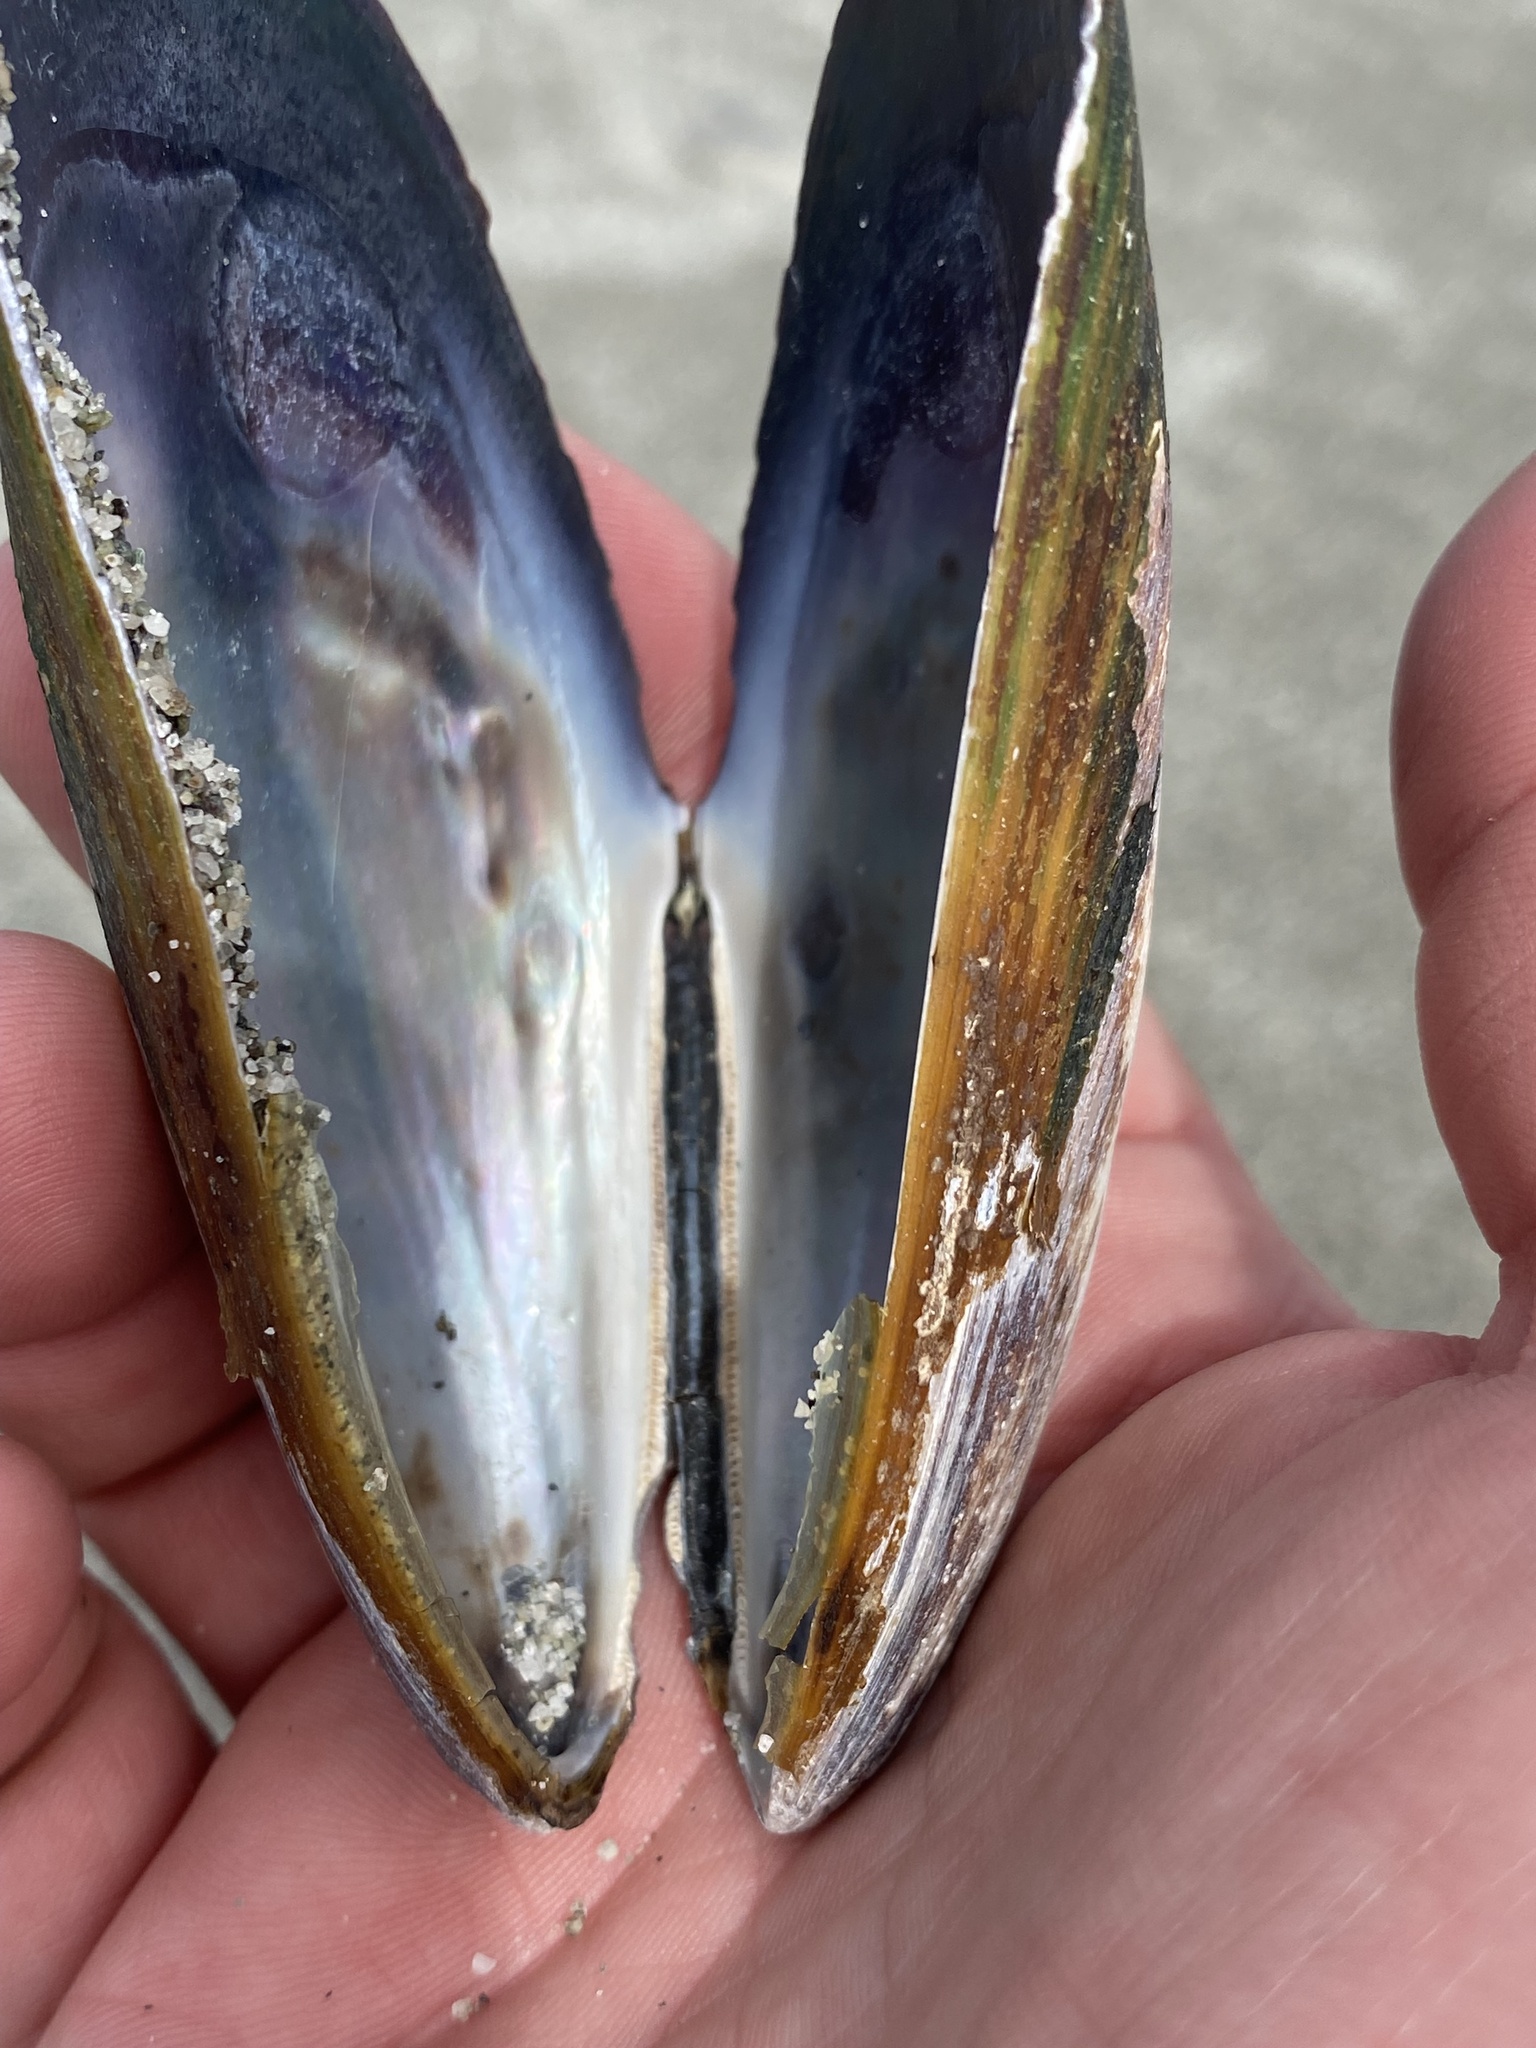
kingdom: Animalia
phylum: Mollusca
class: Bivalvia
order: Mytilida
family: Mytilidae
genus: Perna
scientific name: Perna canaliculus
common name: New zealand greenshelltm
